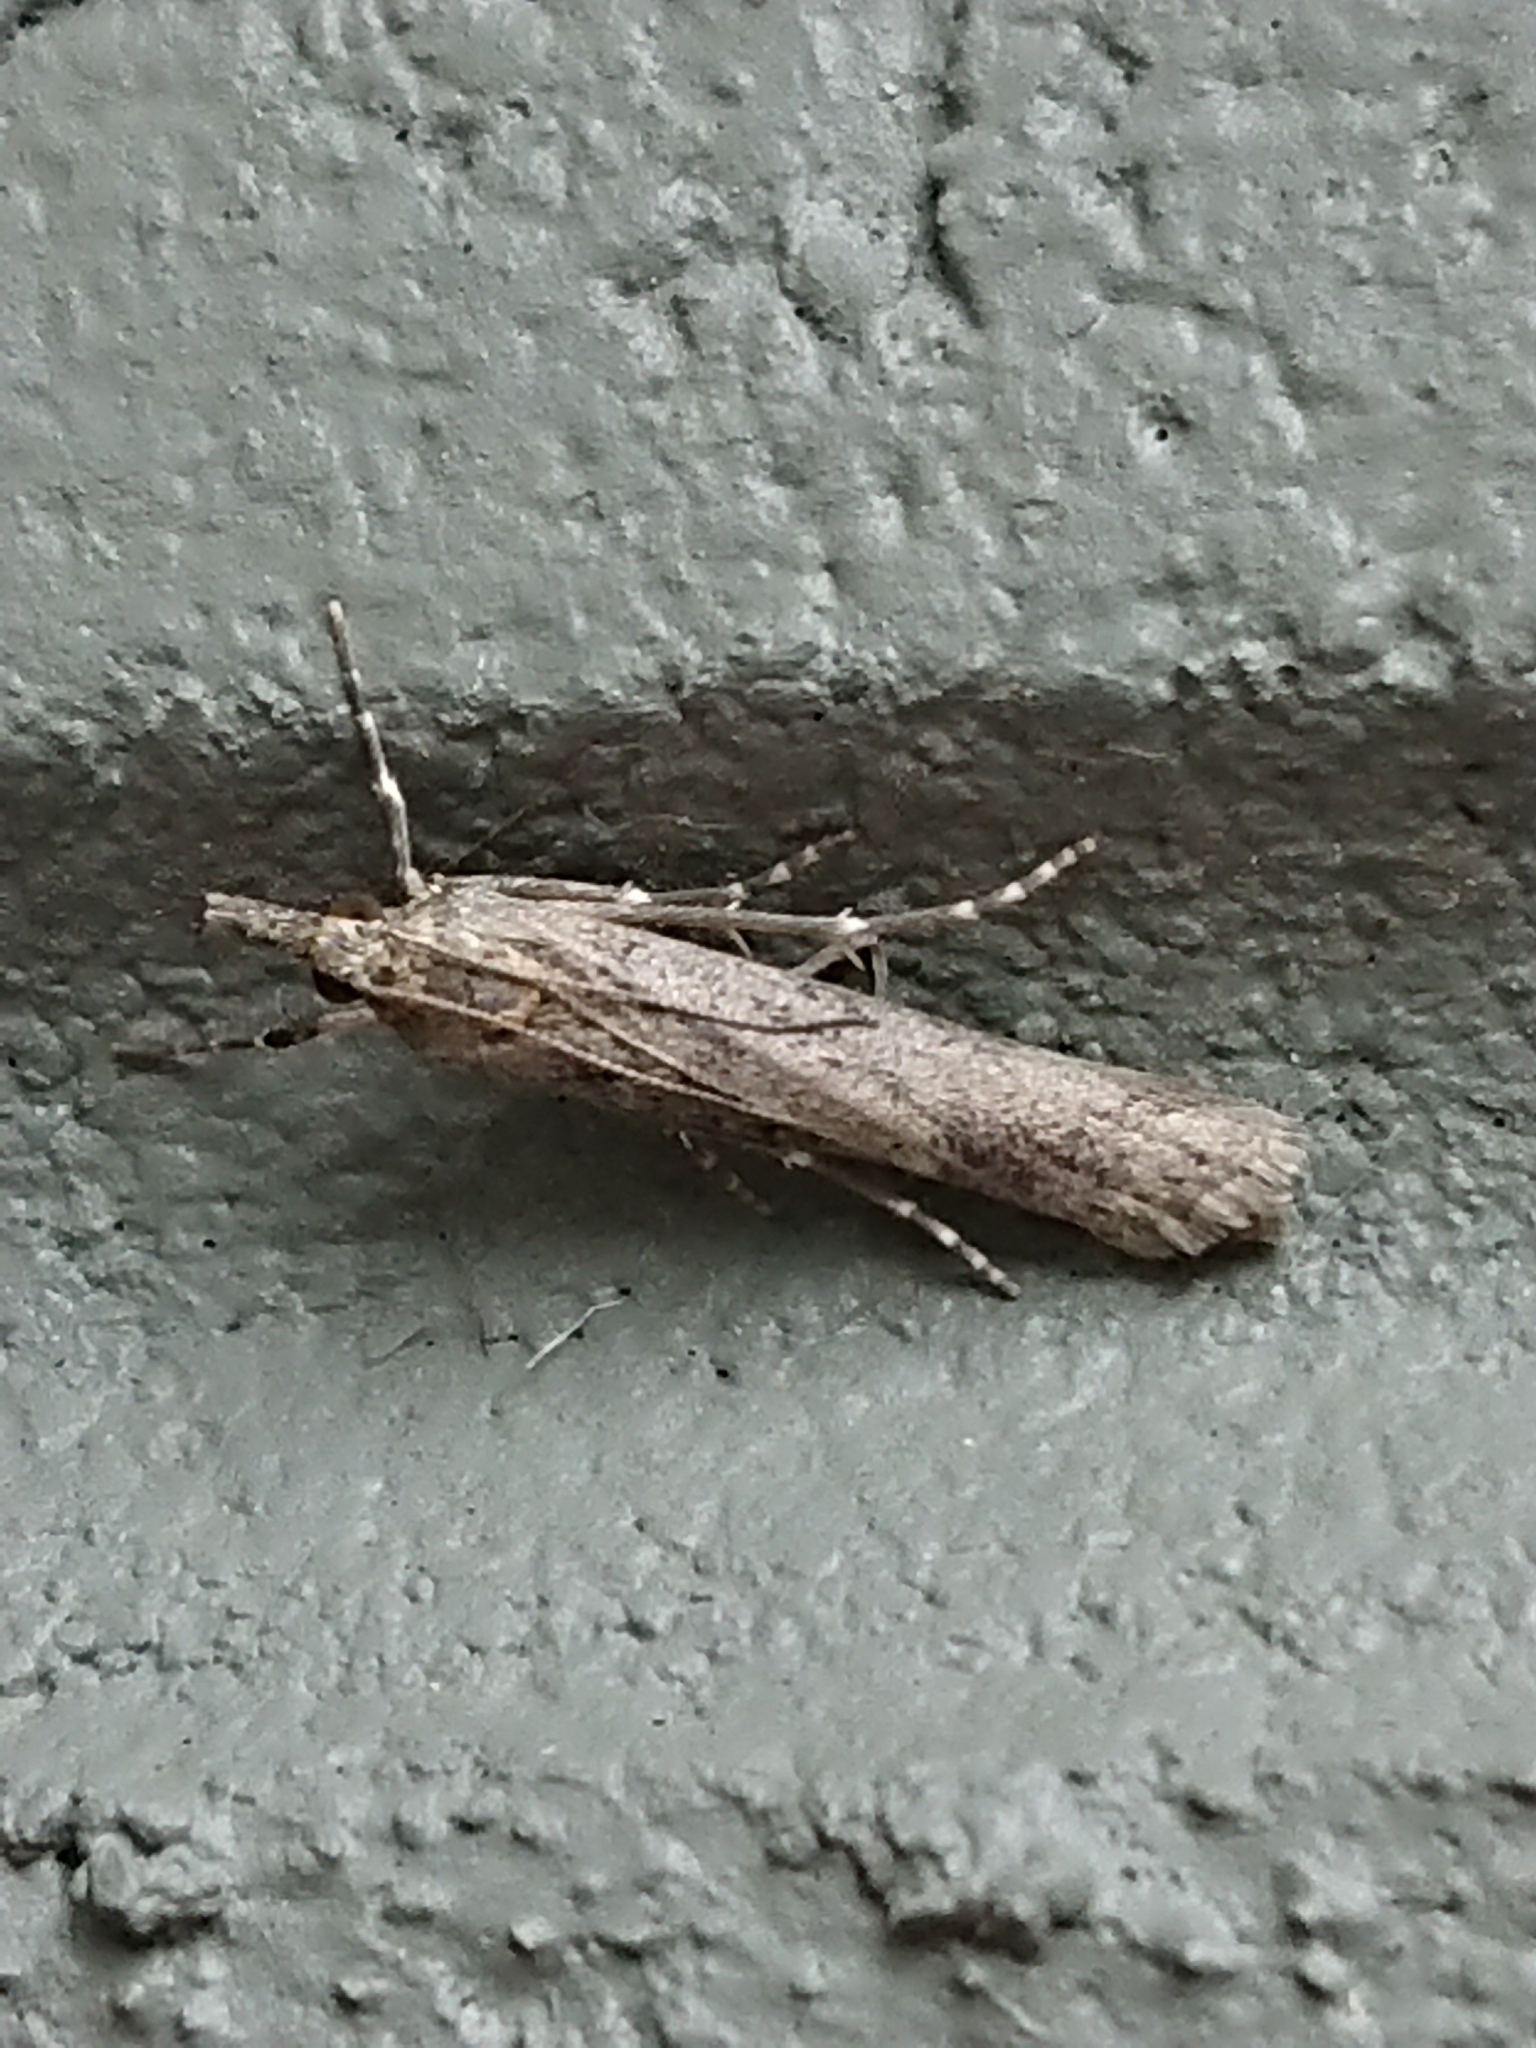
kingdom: Animalia
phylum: Arthropoda
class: Insecta
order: Lepidoptera
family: Crambidae
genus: Eudonia
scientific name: Eudonia leptalea
